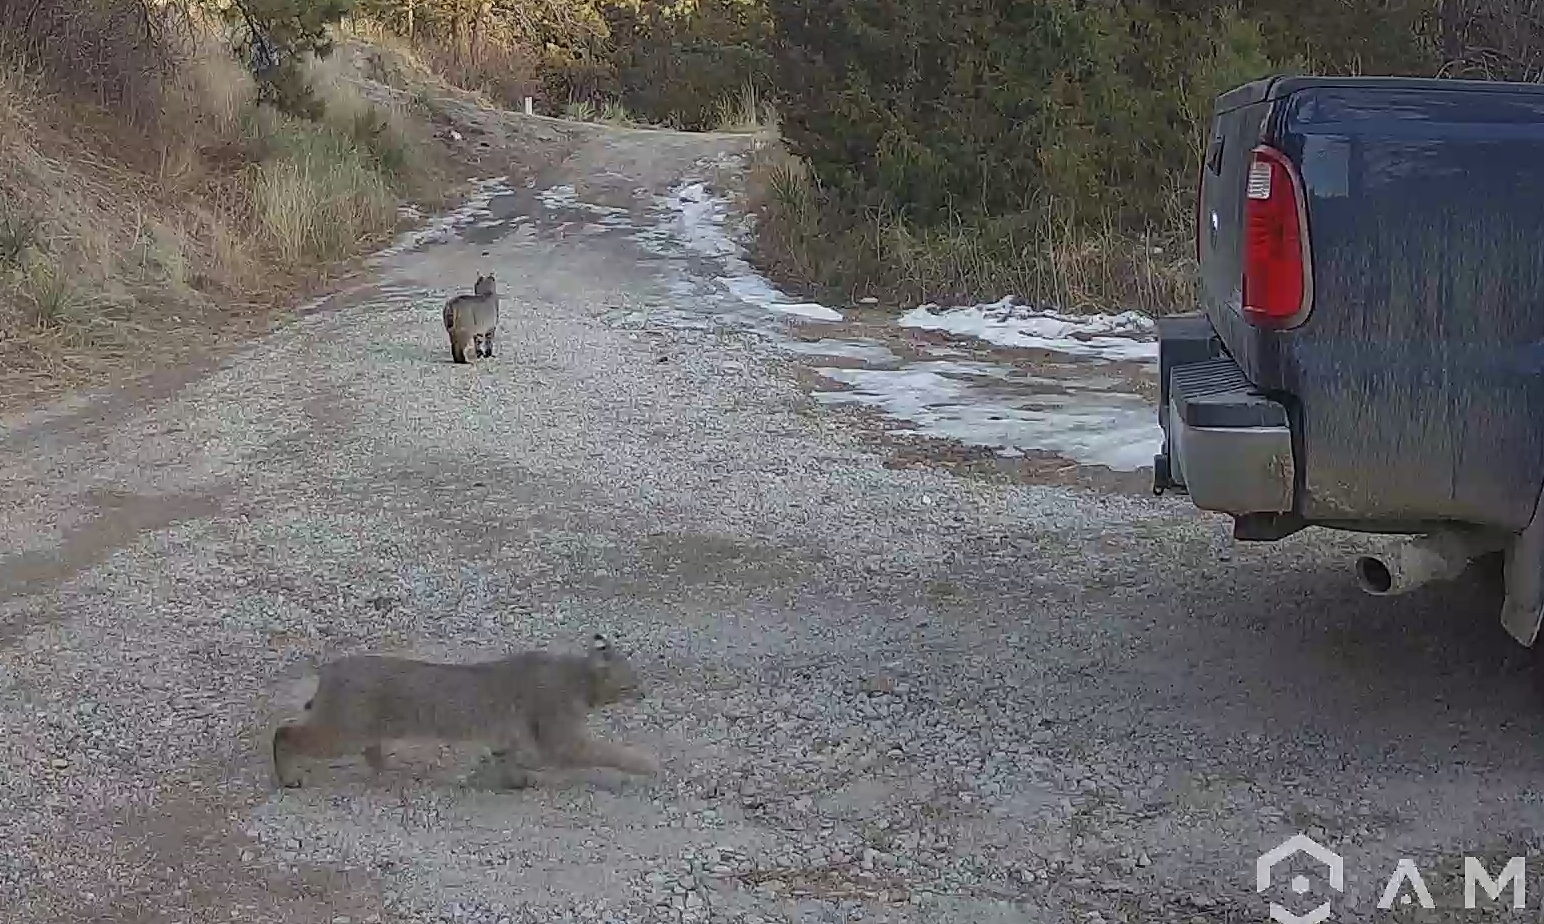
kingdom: Animalia
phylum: Chordata
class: Mammalia
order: Carnivora
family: Felidae
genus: Lynx
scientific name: Lynx rufus
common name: Bobcat
